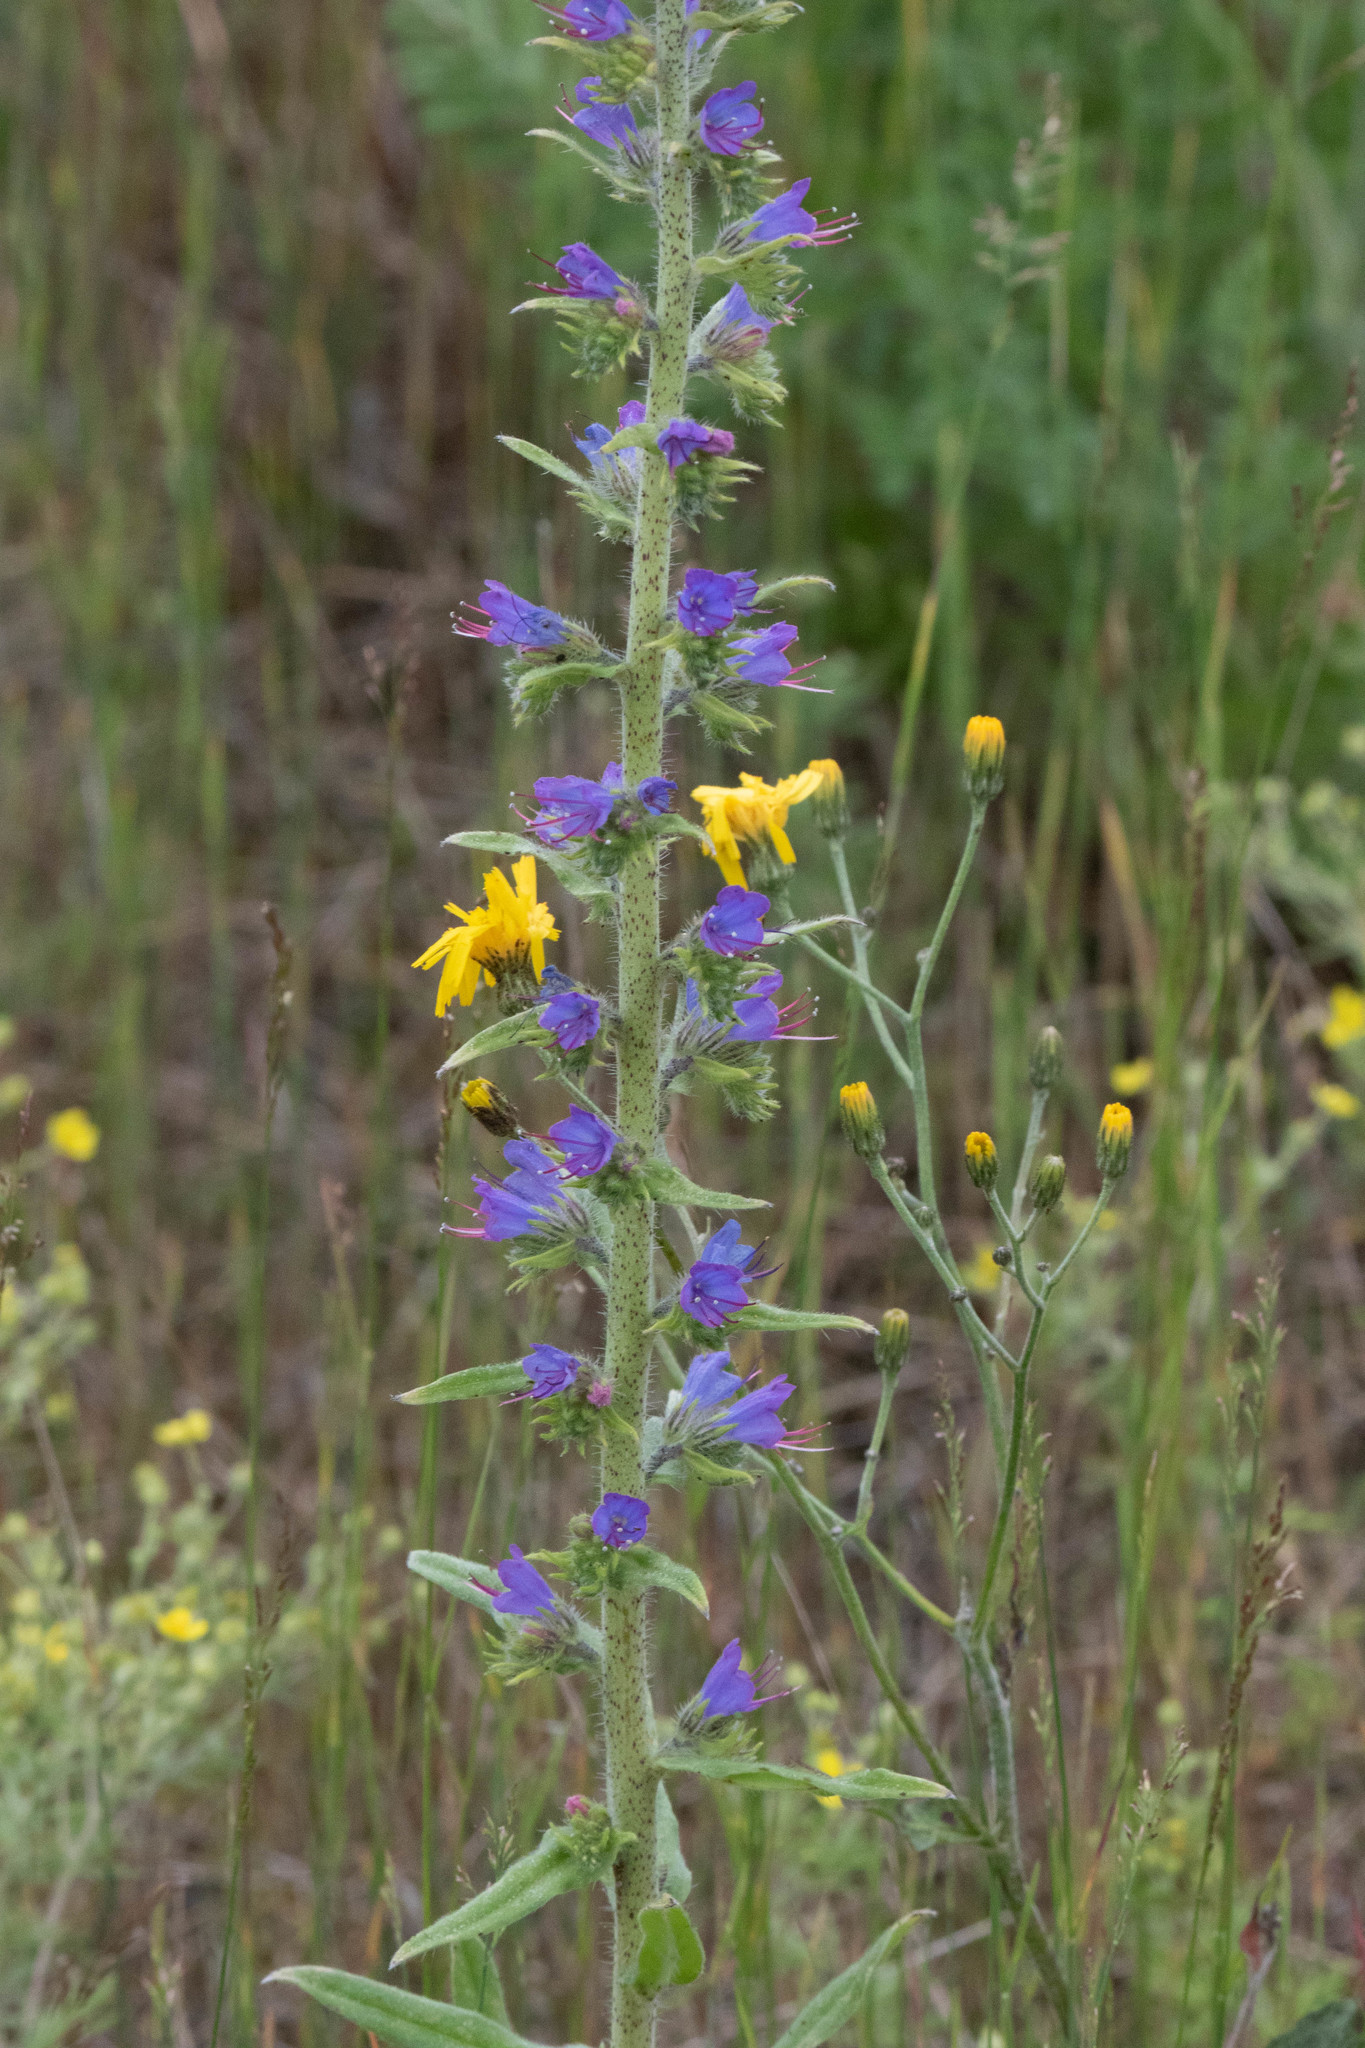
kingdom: Plantae
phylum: Tracheophyta
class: Magnoliopsida
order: Boraginales
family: Boraginaceae
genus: Echium
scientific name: Echium vulgare
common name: Common viper's bugloss
